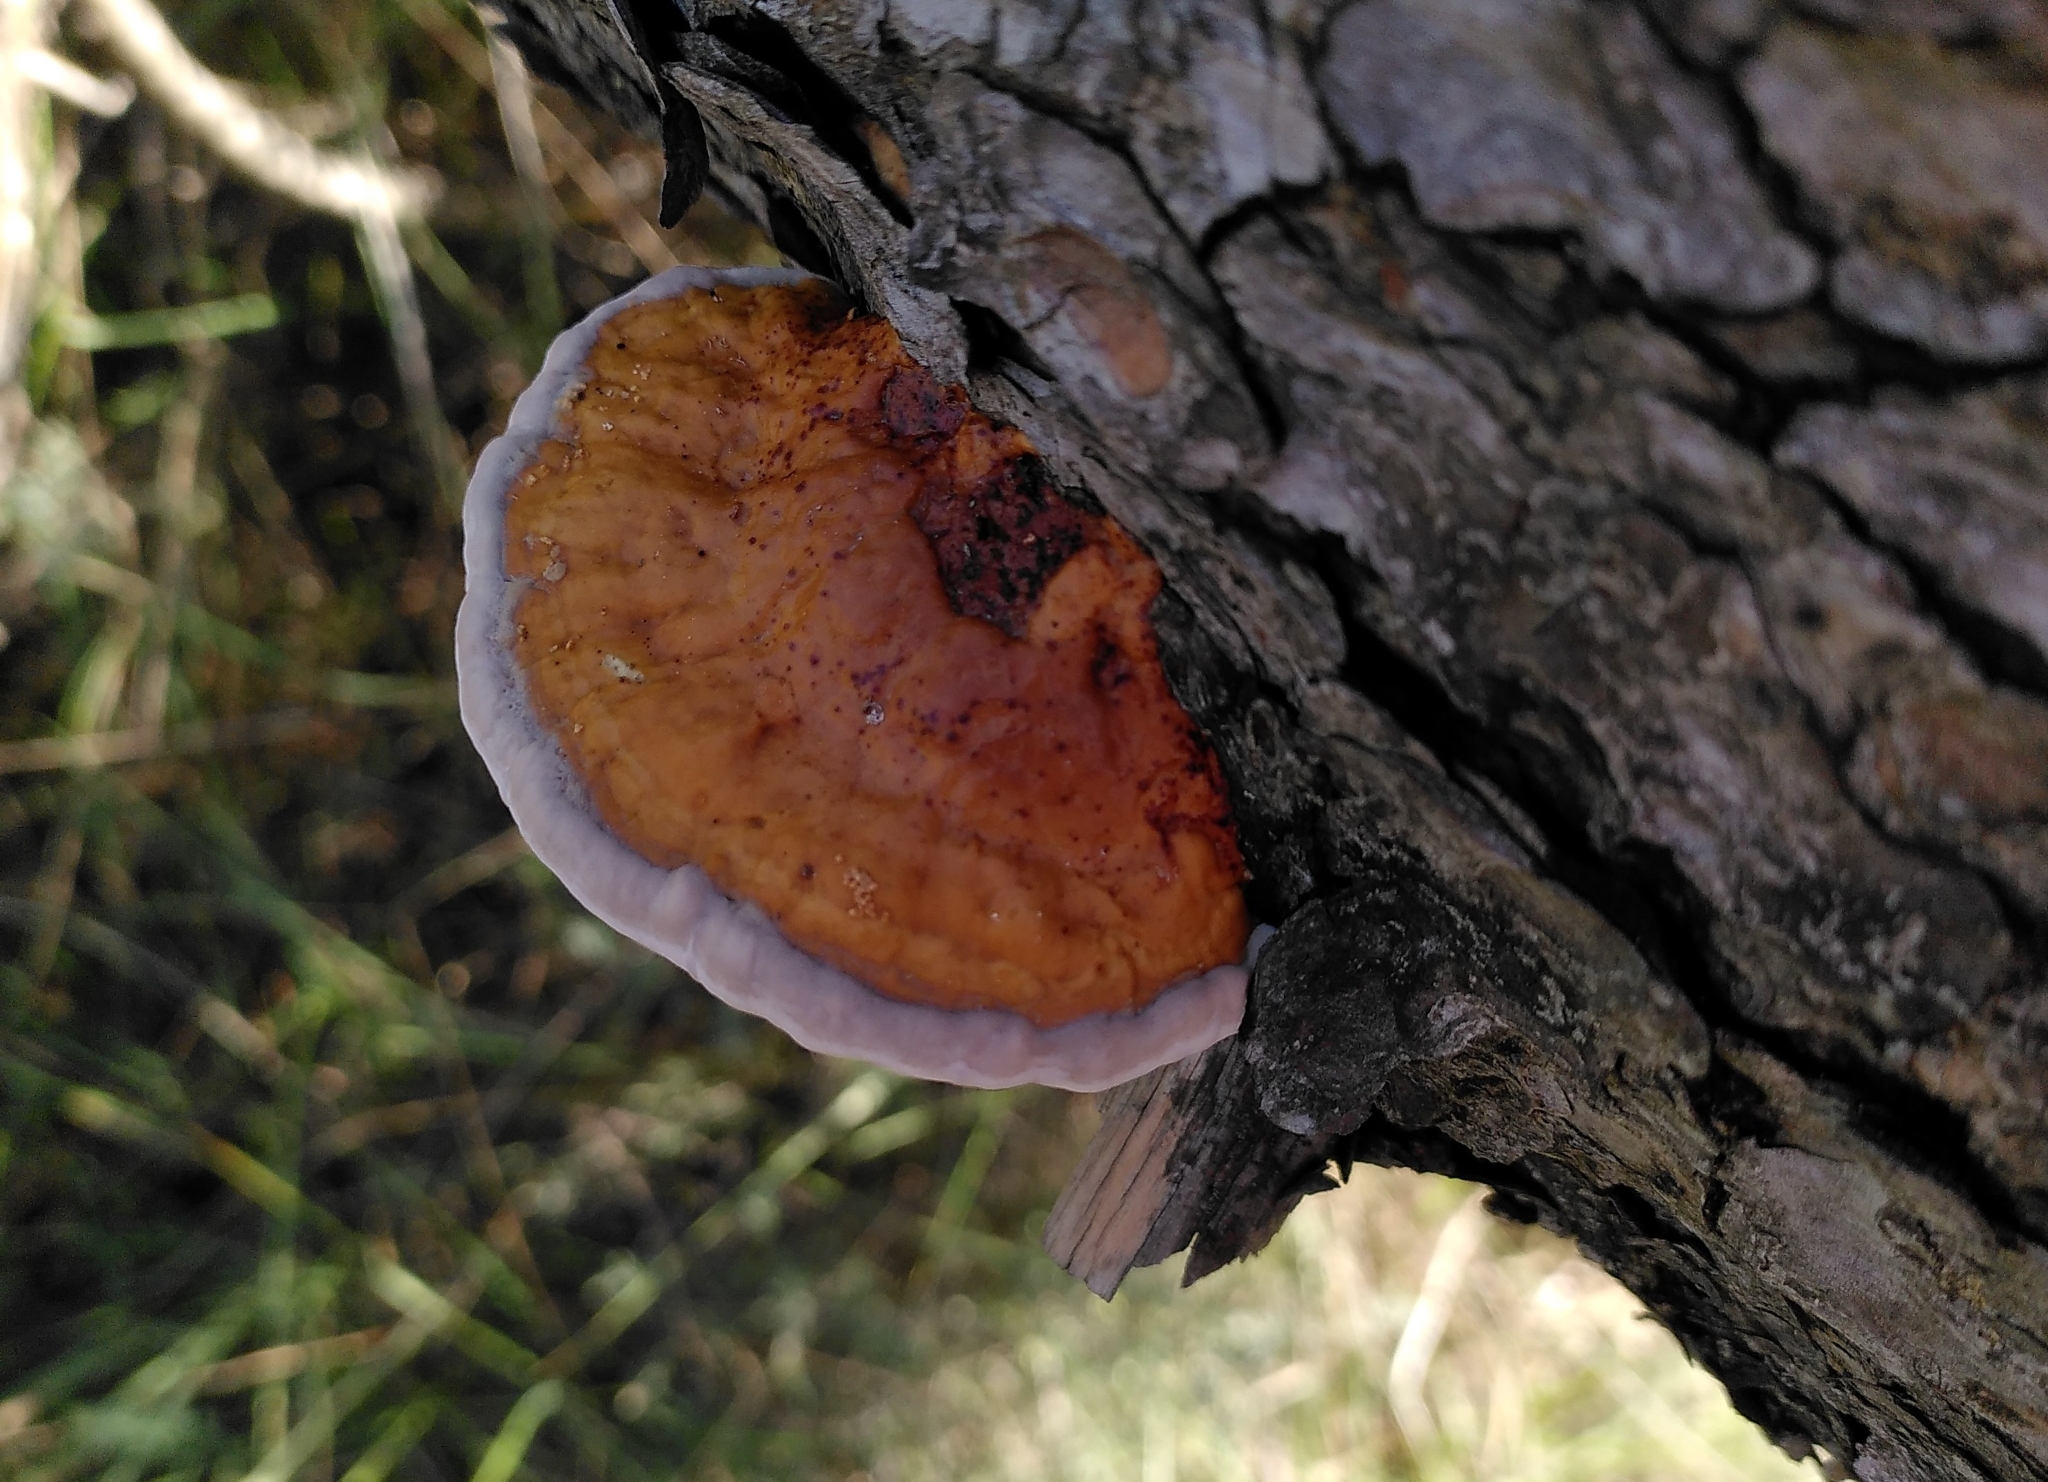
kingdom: Fungi
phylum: Basidiomycota
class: Agaricomycetes
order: Polyporales
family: Fomitopsidaceae
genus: Fomitopsis
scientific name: Fomitopsis pinicola
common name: Red-belted bracket
